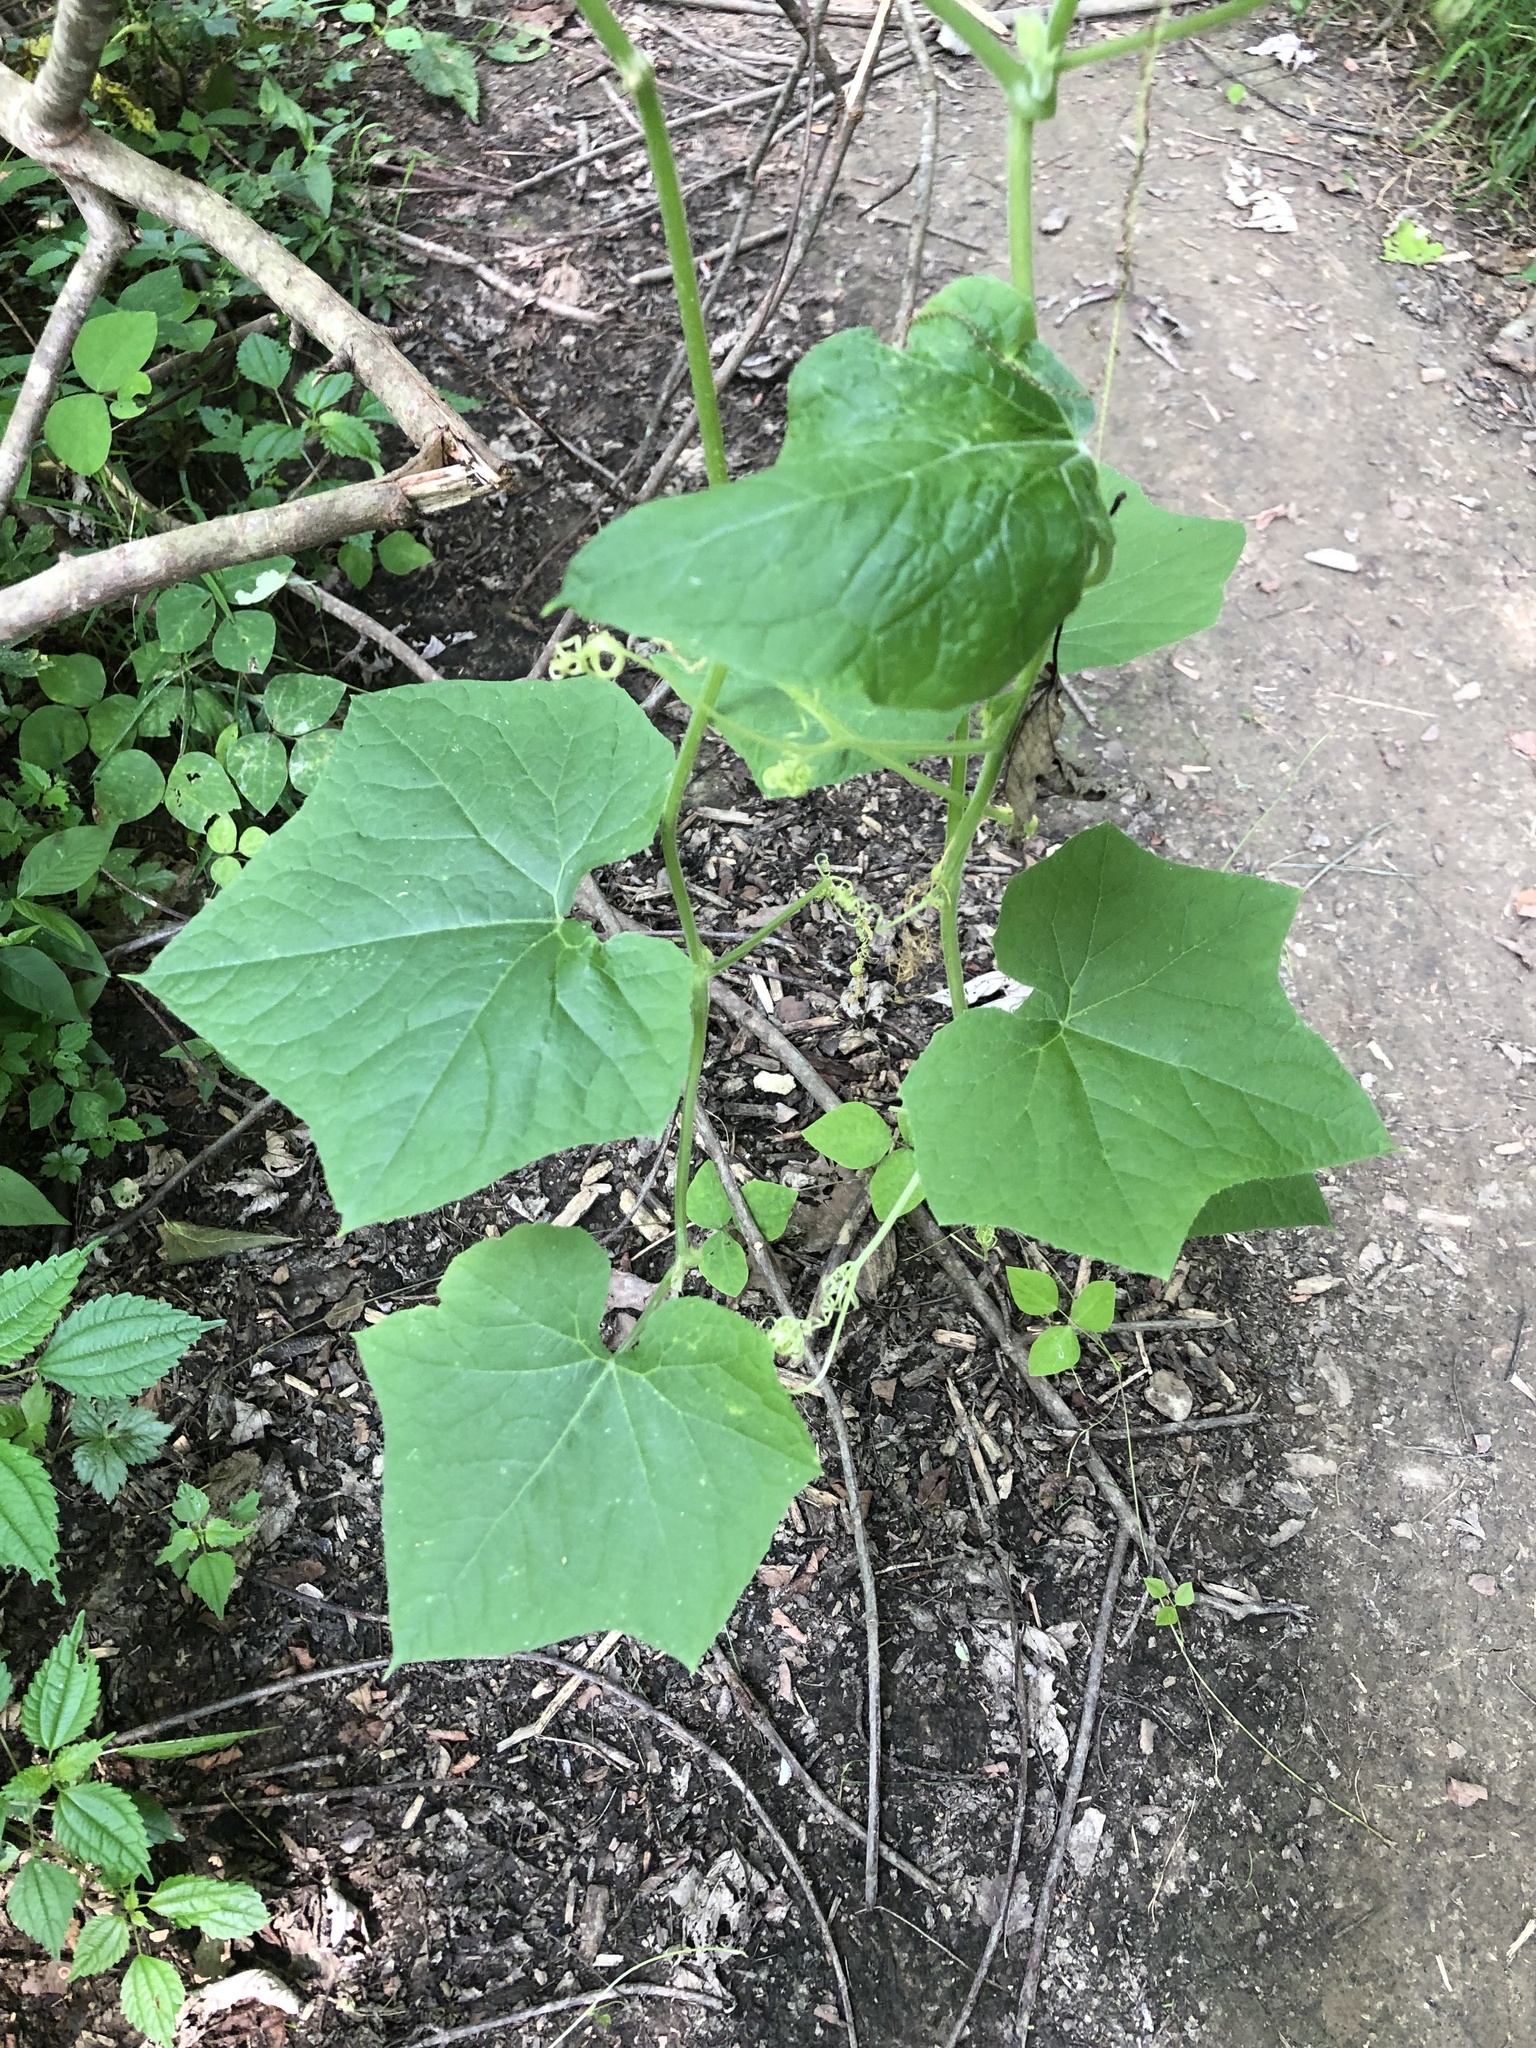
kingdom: Plantae
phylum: Tracheophyta
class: Magnoliopsida
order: Cucurbitales
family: Cucurbitaceae
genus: Sicyos
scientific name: Sicyos angulatus
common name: Angled burr cucumber
